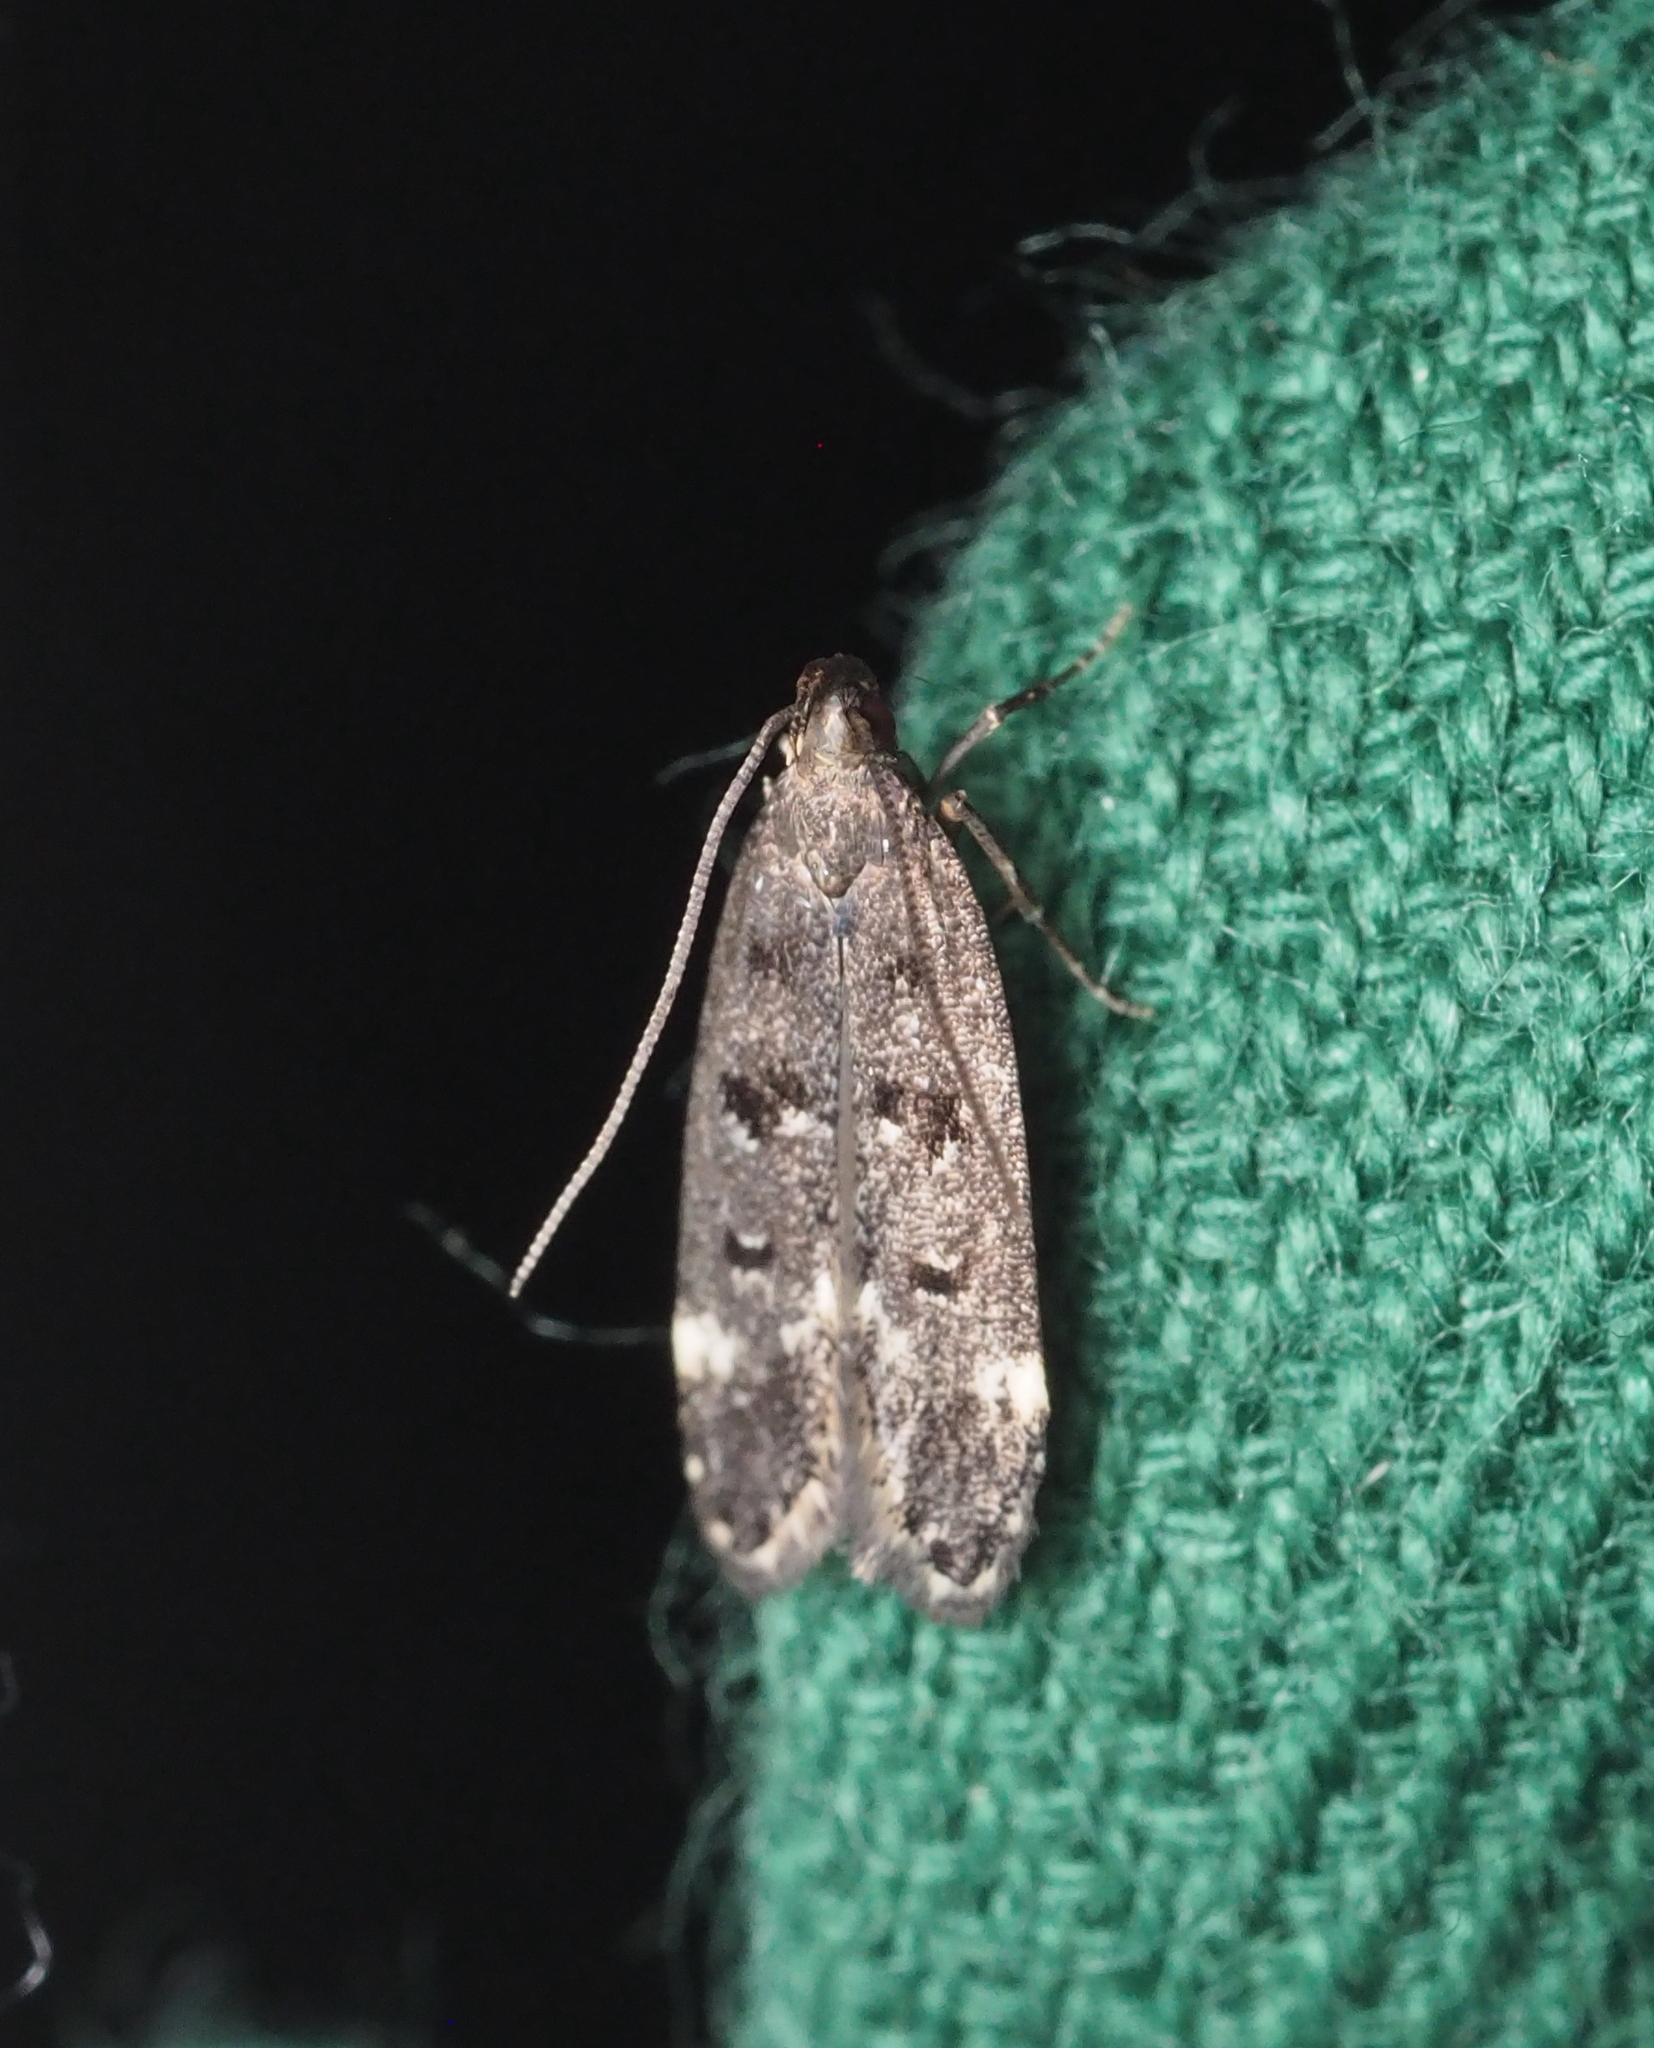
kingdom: Animalia
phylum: Arthropoda
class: Insecta
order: Lepidoptera
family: Gelechiidae
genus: Acanthophila
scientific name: Acanthophila alacella
